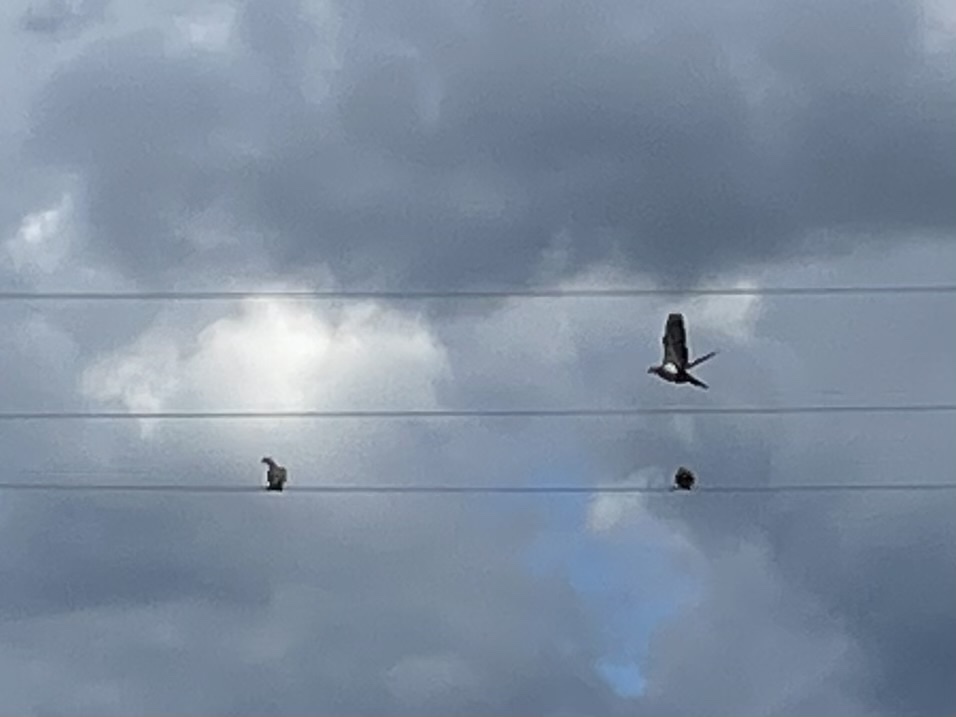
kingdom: Animalia
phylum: Chordata
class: Aves
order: Columbiformes
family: Columbidae
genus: Columba
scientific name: Columba palumbus
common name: Common wood pigeon
